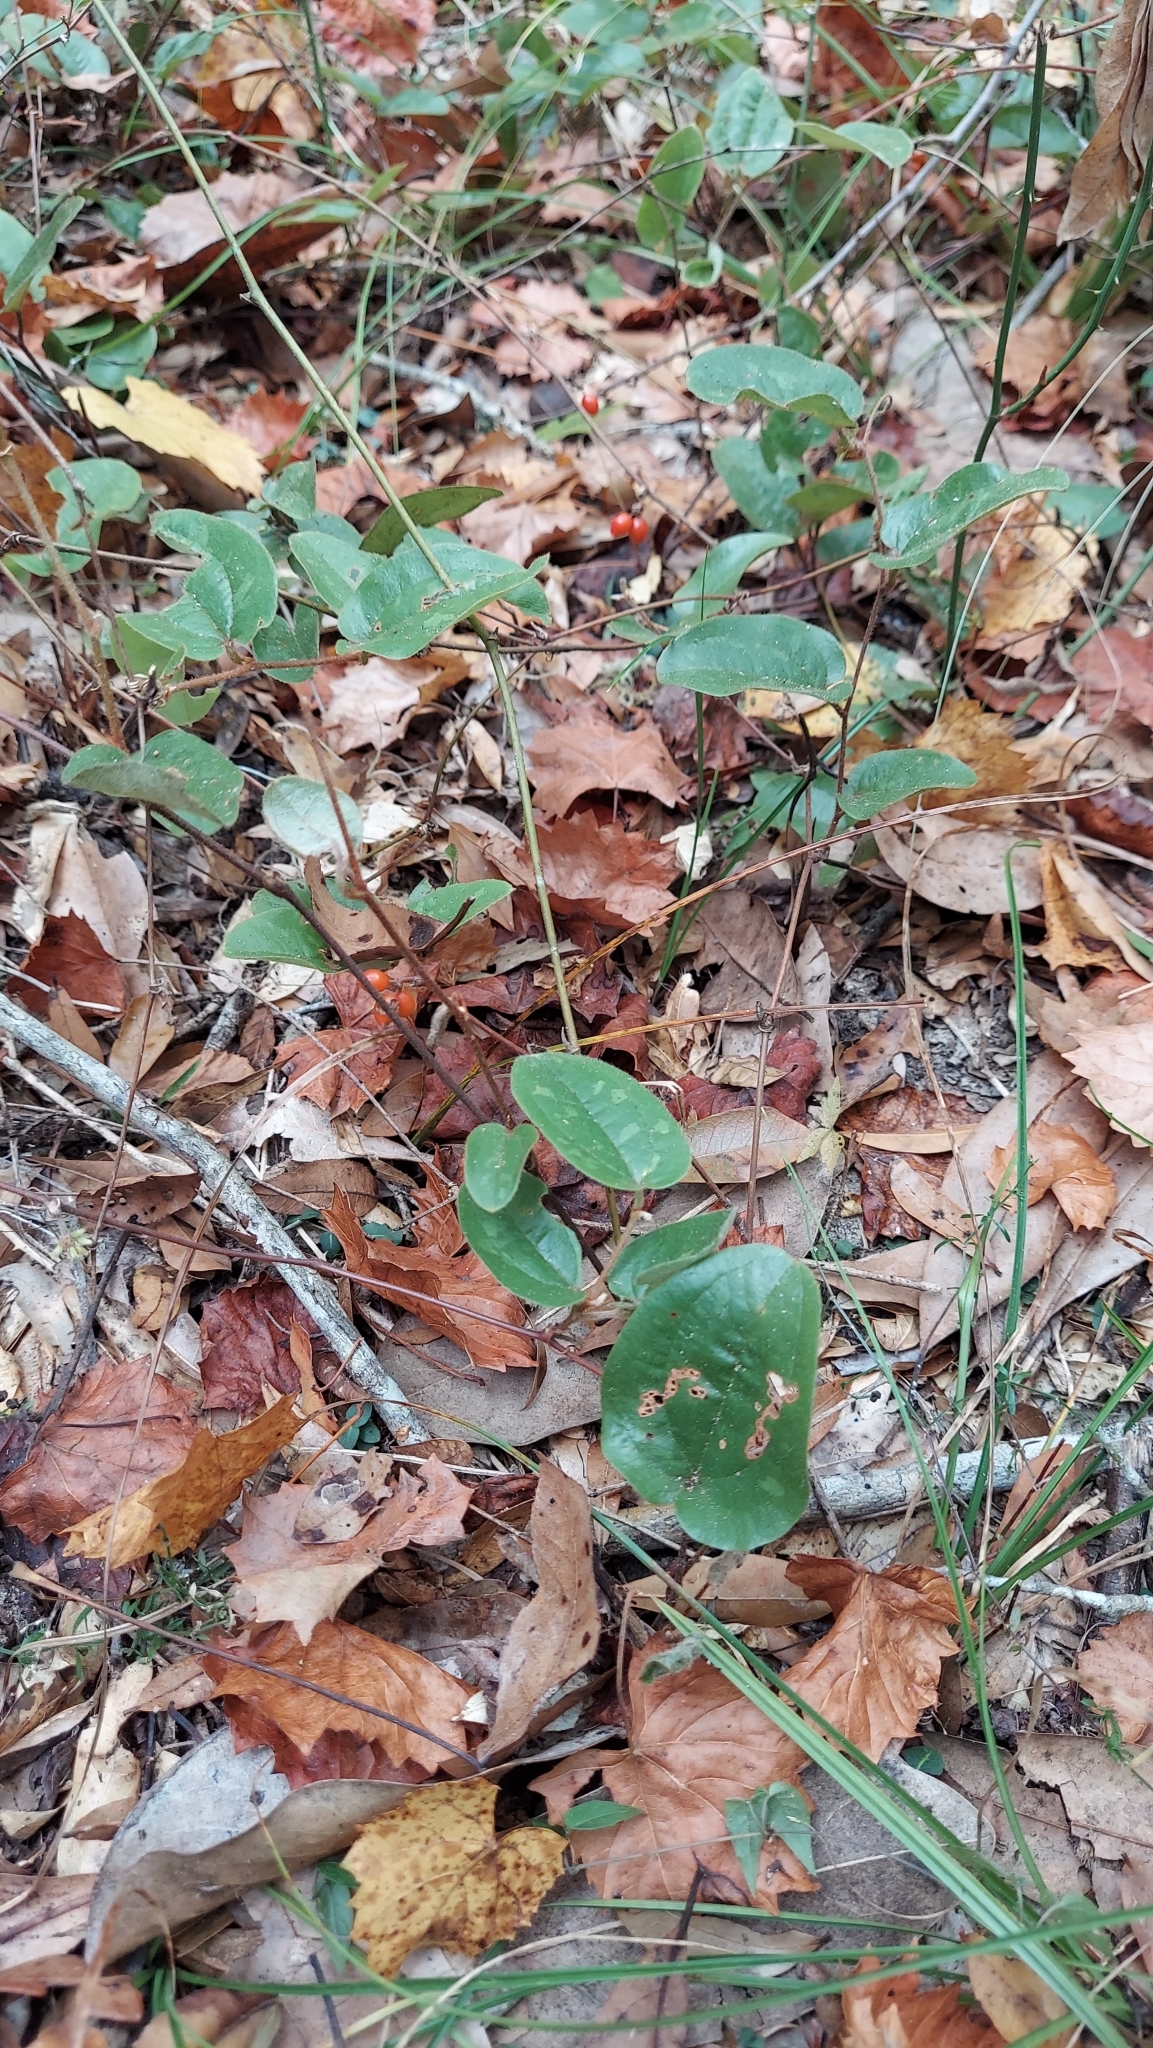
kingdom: Plantae
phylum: Tracheophyta
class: Liliopsida
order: Liliales
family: Smilacaceae
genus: Smilax
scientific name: Smilax pumila
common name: Sarsaparilla-vine
